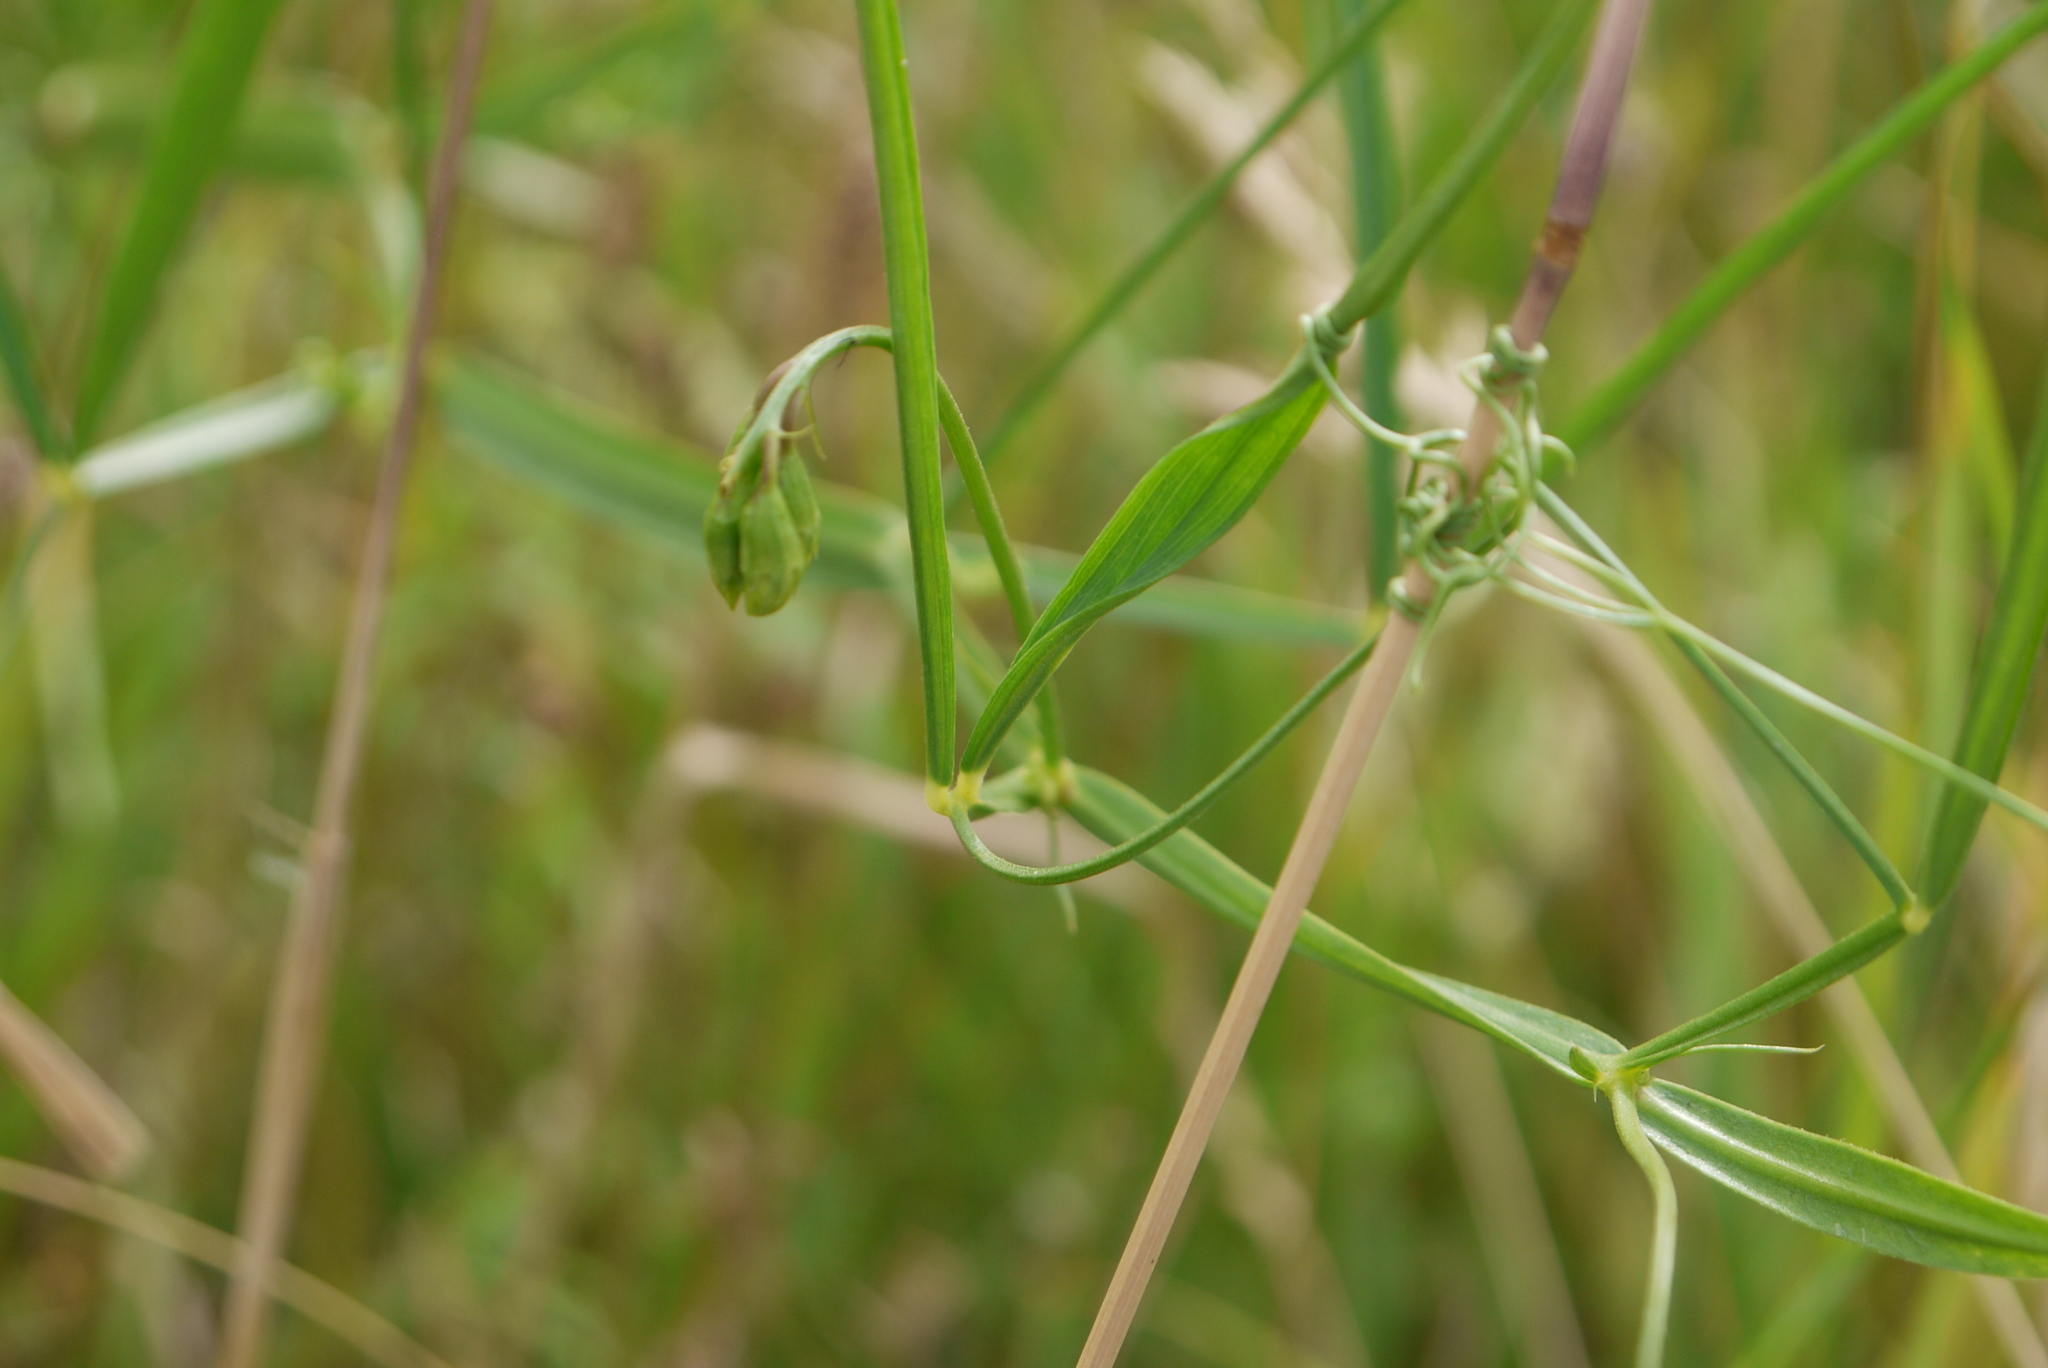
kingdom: Plantae
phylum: Tracheophyta
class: Magnoliopsida
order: Fabales
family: Fabaceae
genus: Lathyrus
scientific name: Lathyrus sylvestris
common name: Flat pea
